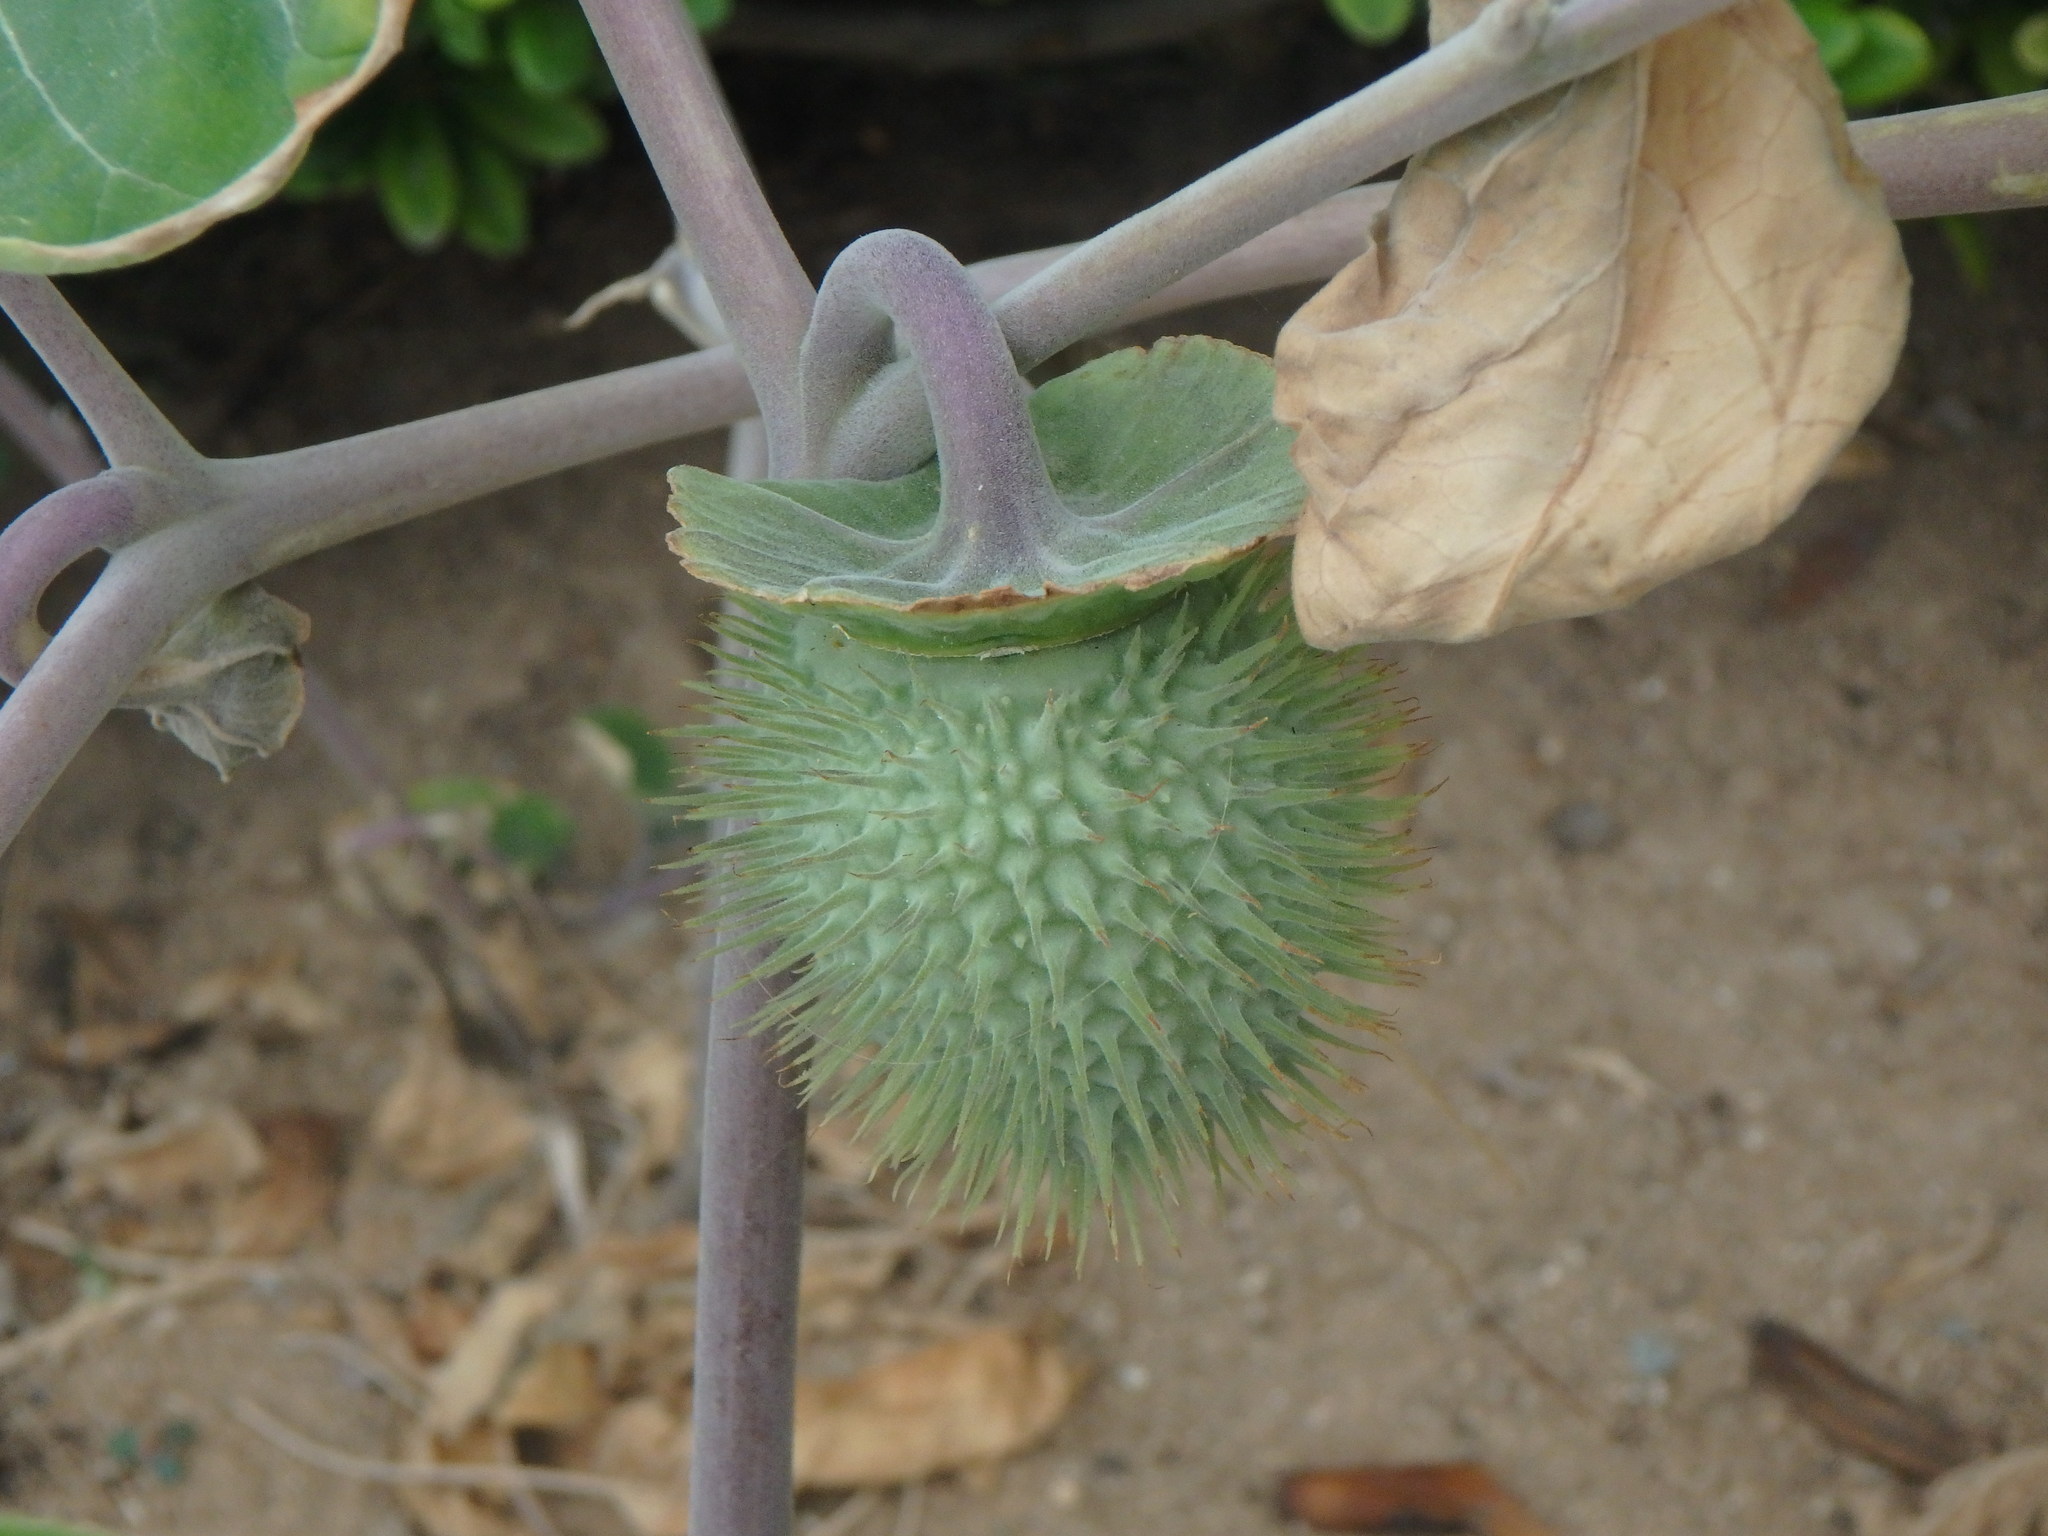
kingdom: Plantae
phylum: Tracheophyta
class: Magnoliopsida
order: Solanales
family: Solanaceae
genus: Datura
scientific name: Datura innoxia
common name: Downy thorn-apple
